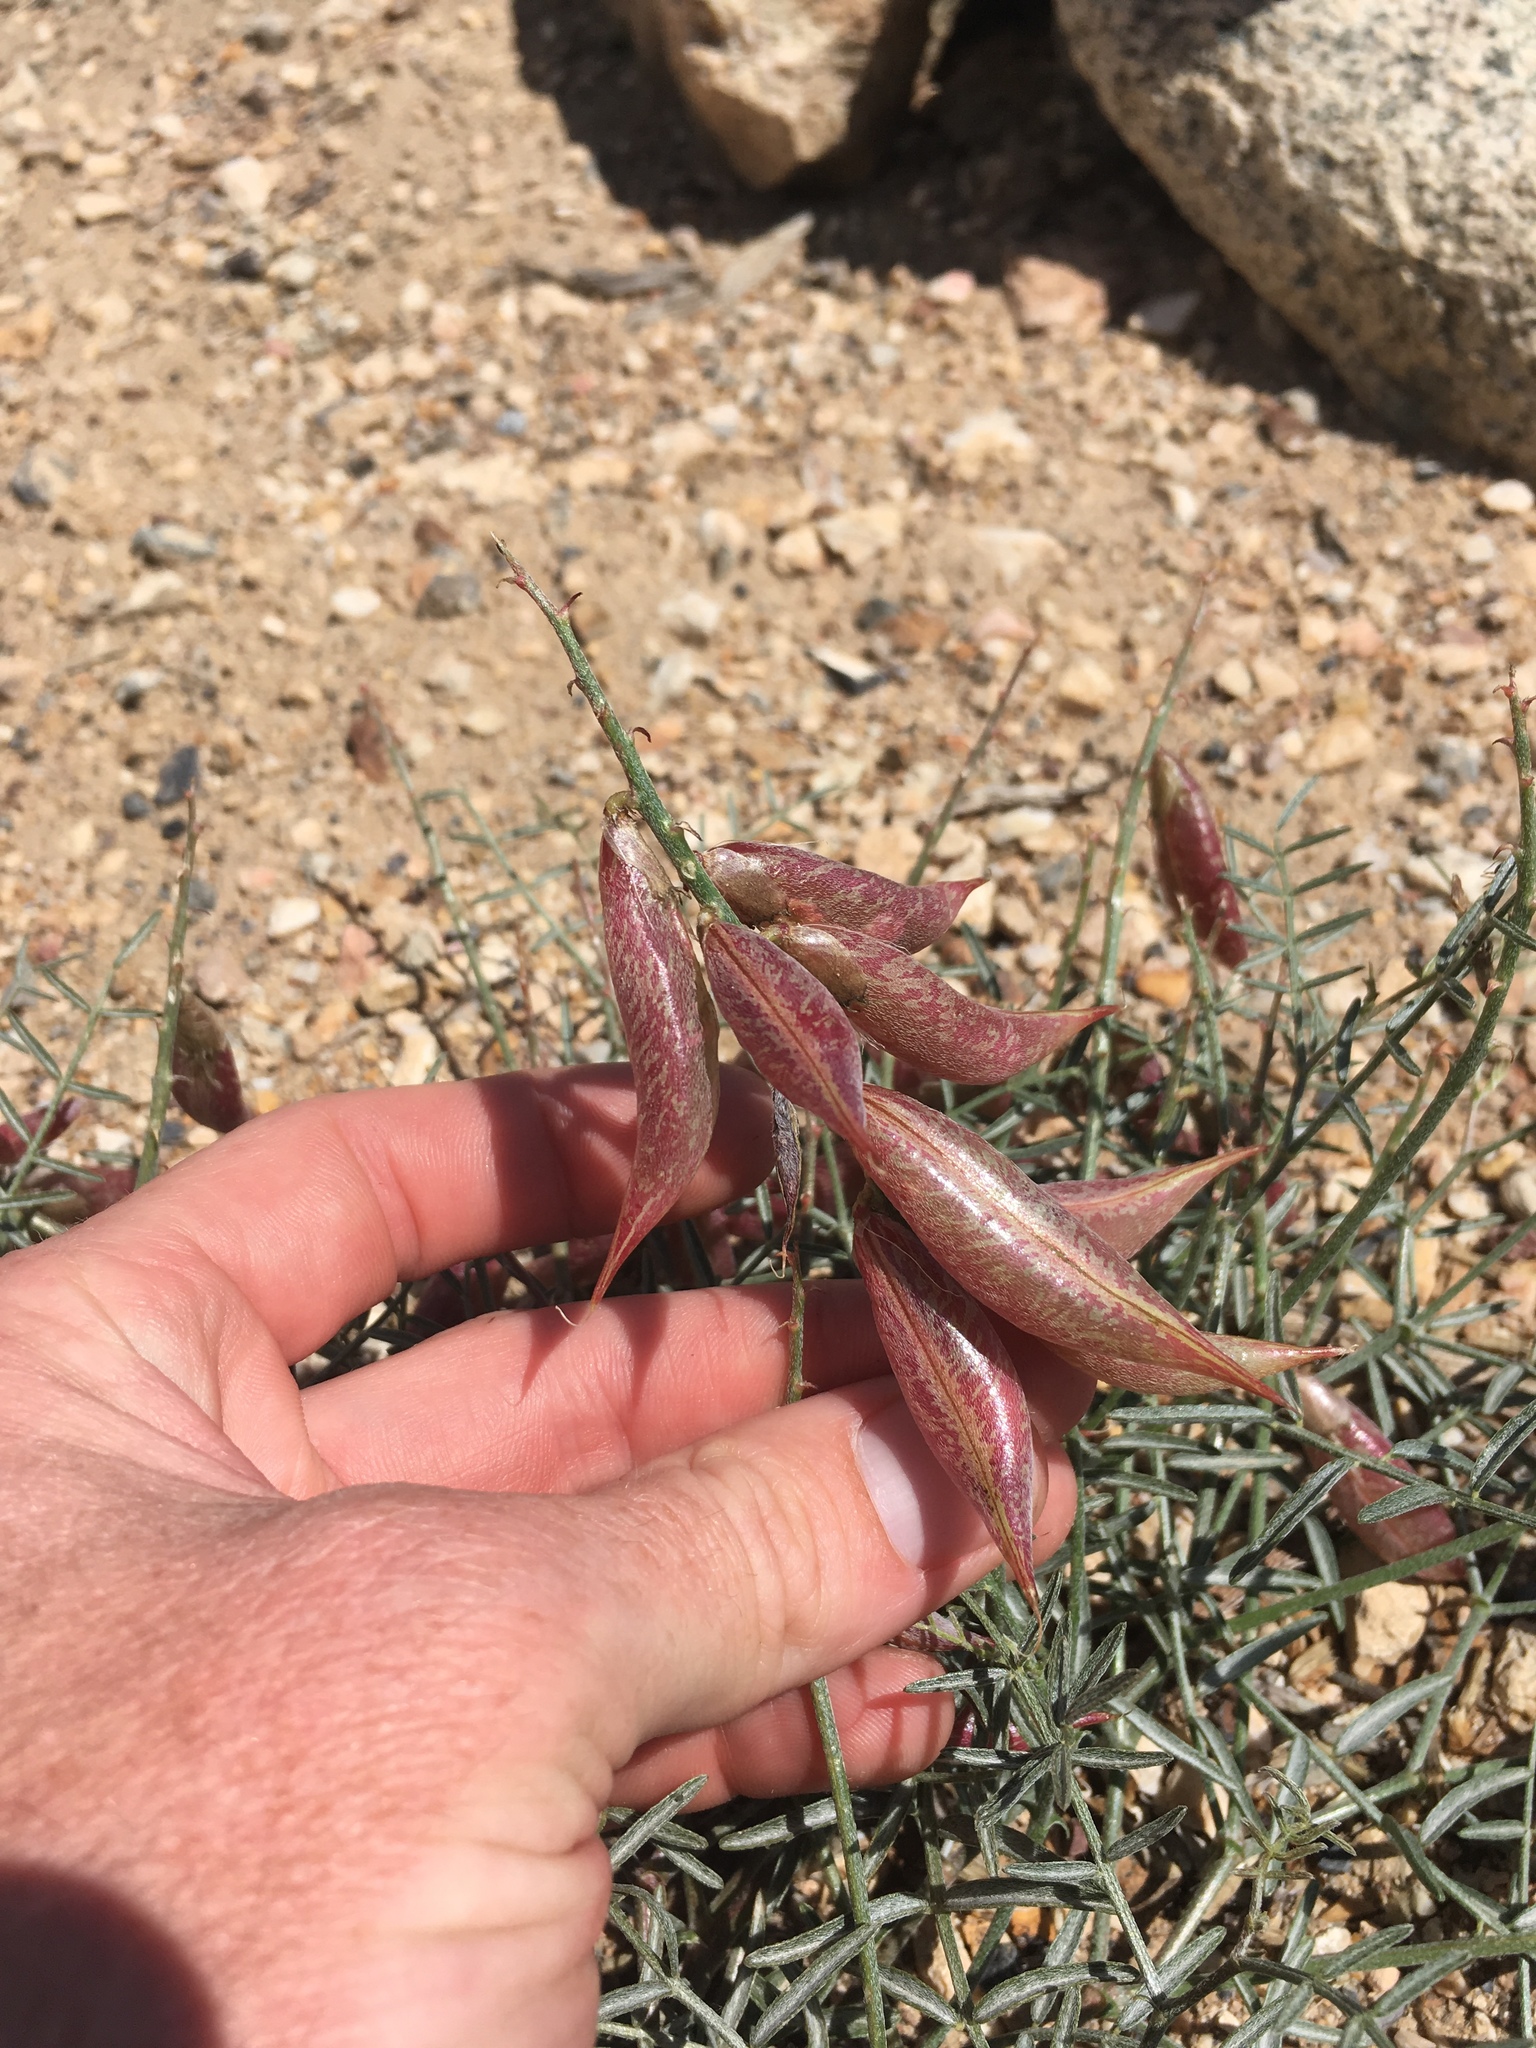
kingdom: Plantae
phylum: Tracheophyta
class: Magnoliopsida
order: Fabales
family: Fabaceae
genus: Astragalus
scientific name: Astragalus casei
